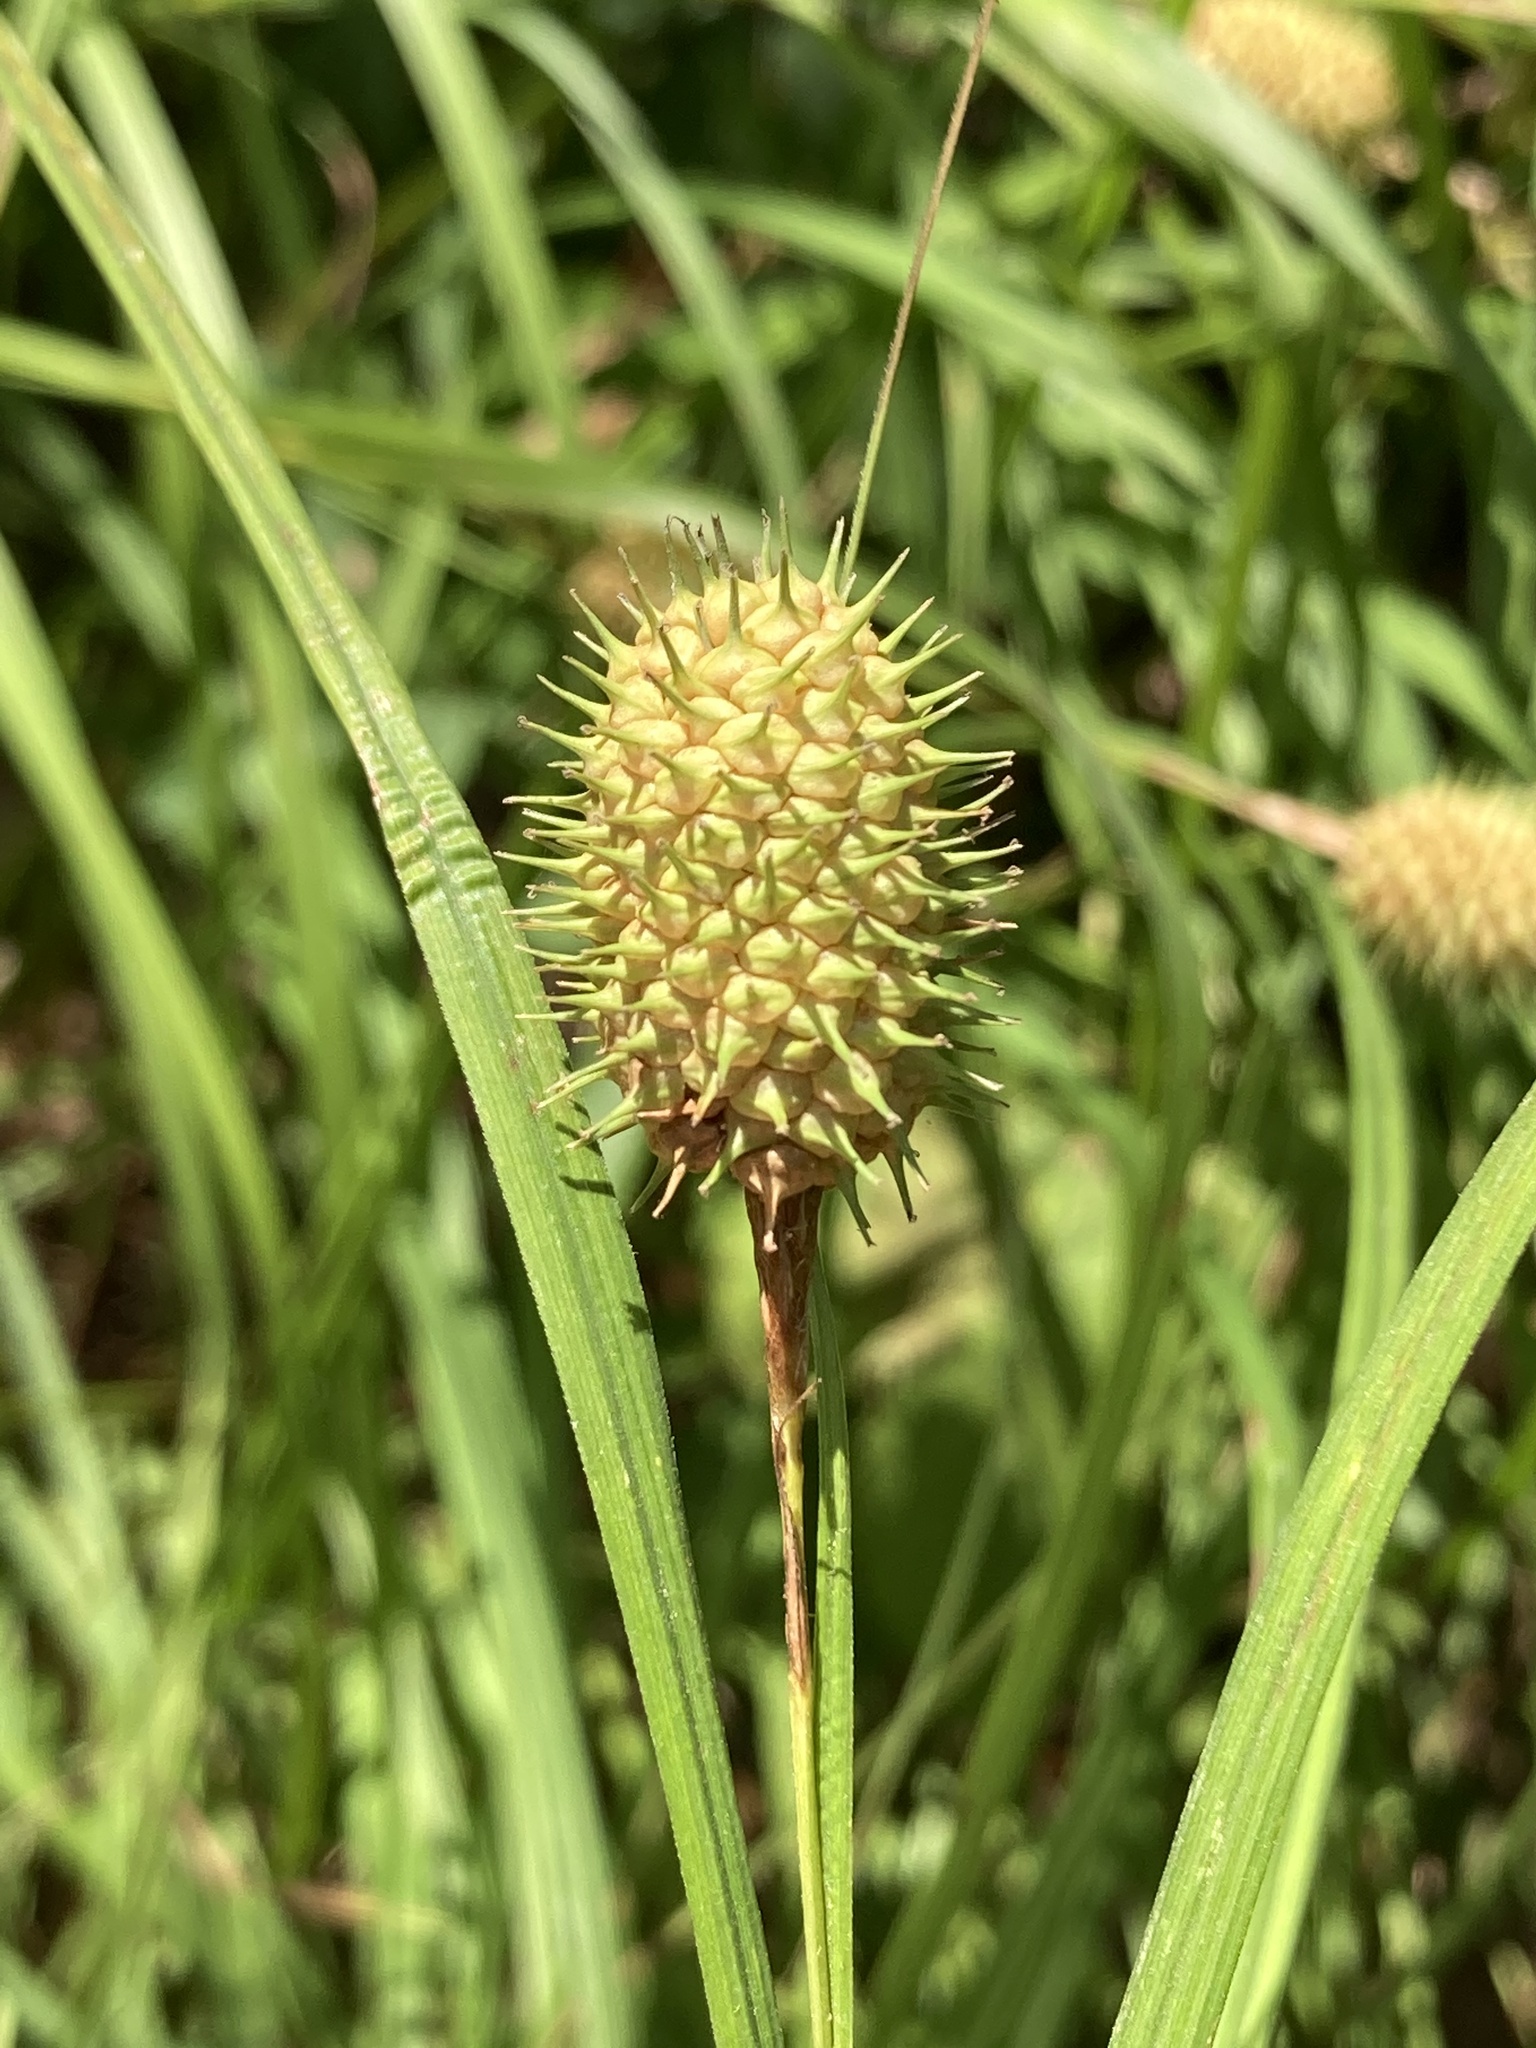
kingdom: Plantae
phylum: Tracheophyta
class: Liliopsida
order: Poales
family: Cyperaceae
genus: Carex
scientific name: Carex squarrosa
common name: Narrow-leaved cattail sedge
